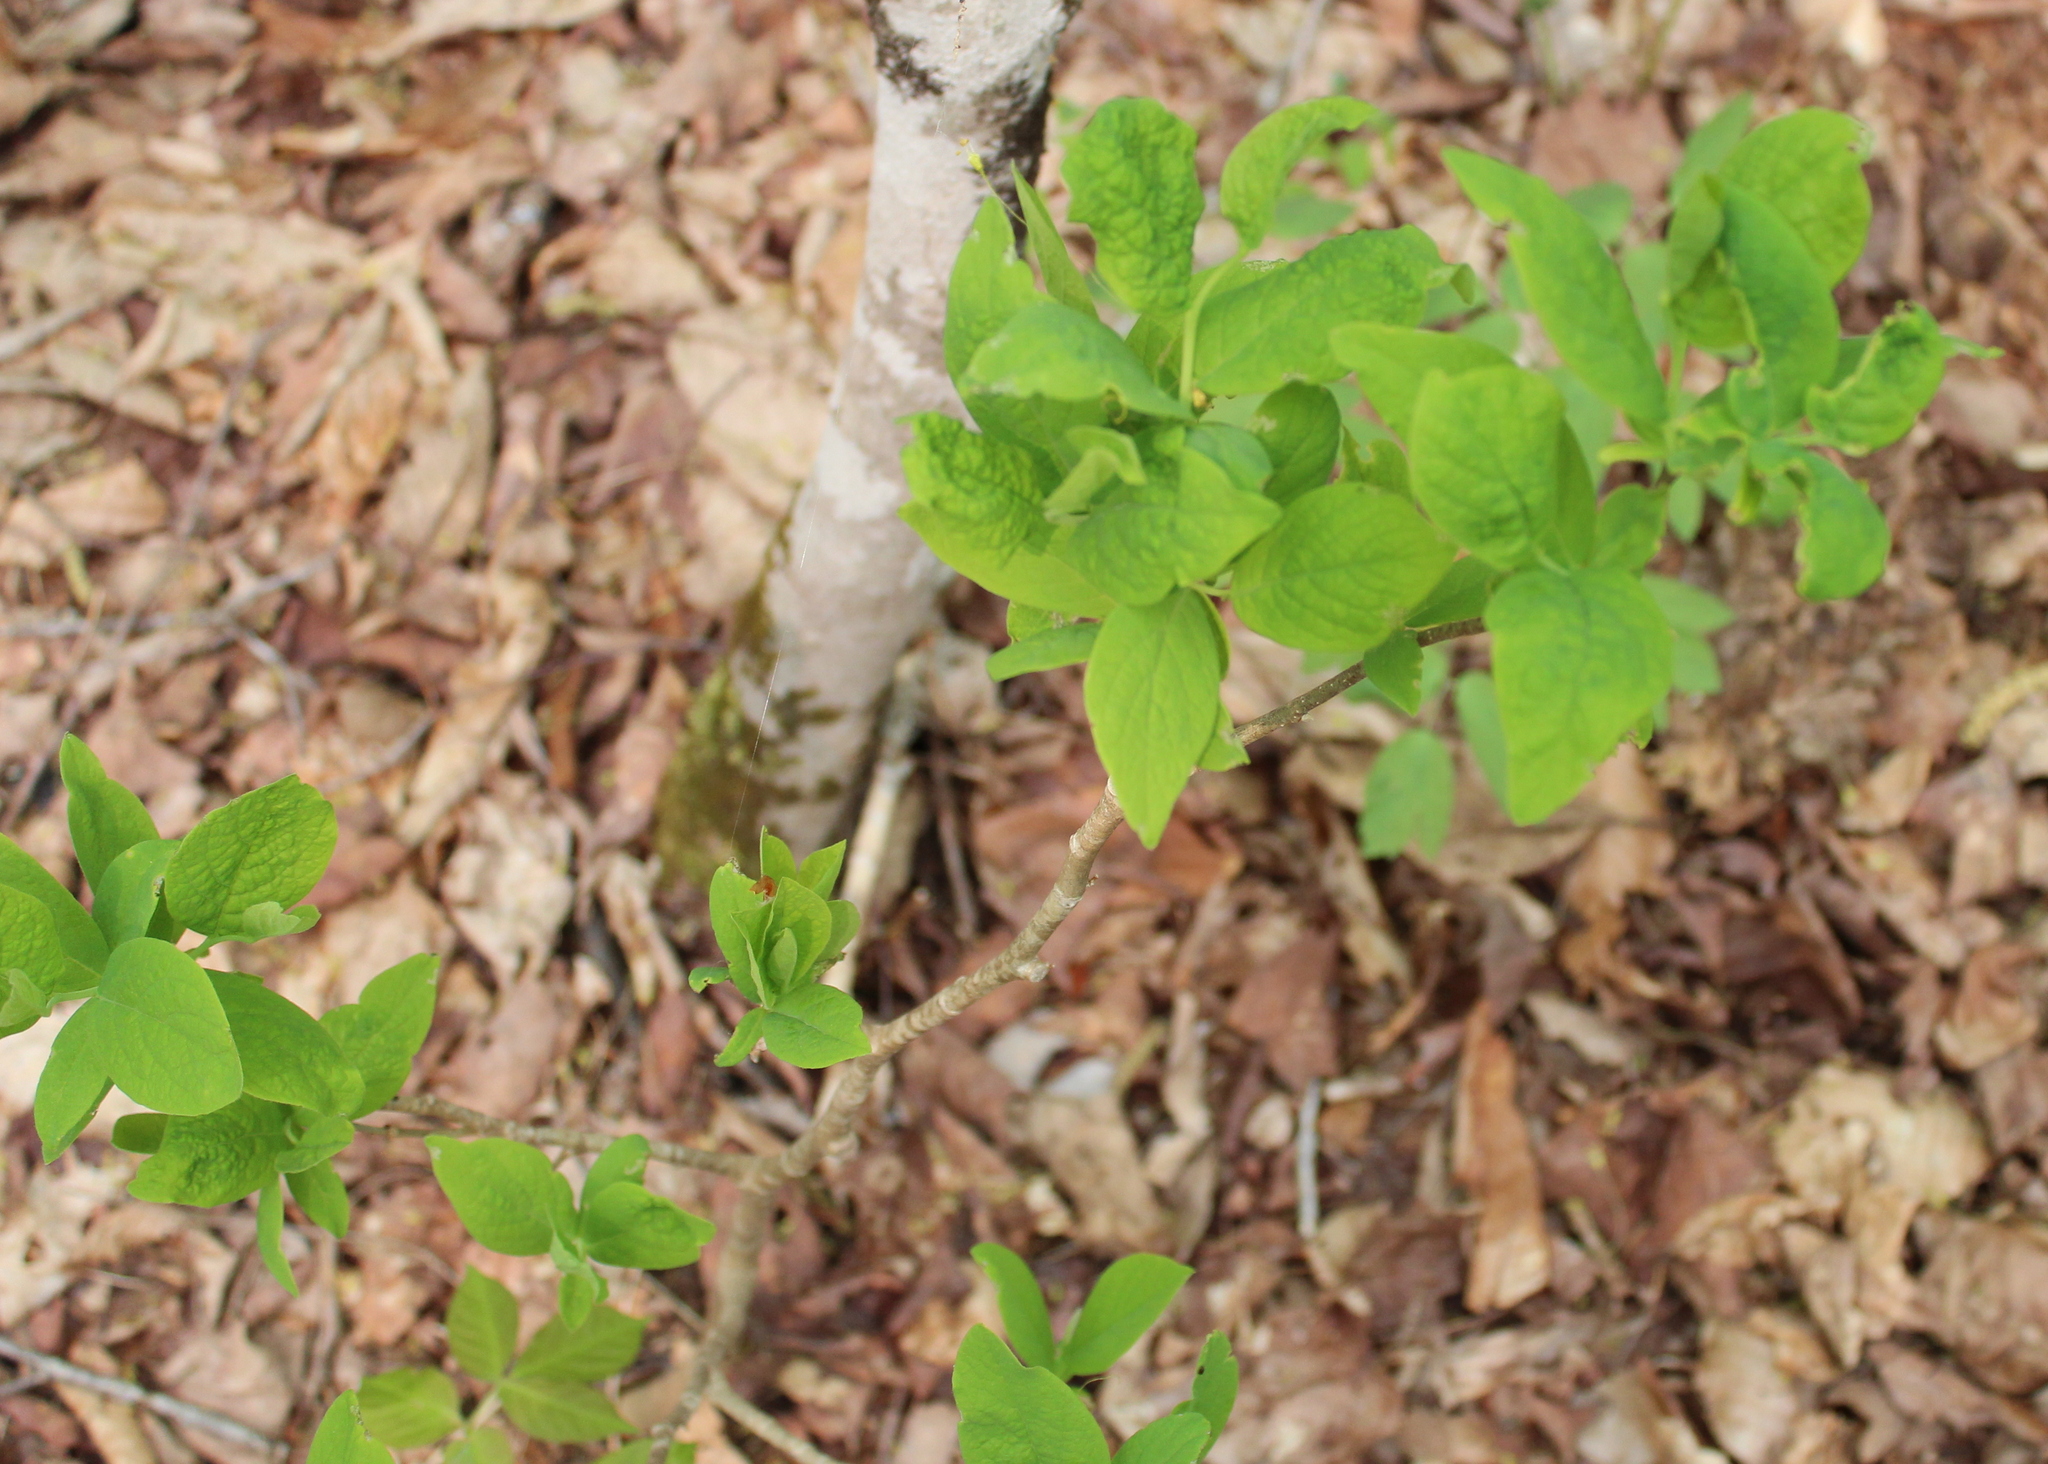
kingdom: Plantae
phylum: Tracheophyta
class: Magnoliopsida
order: Malvales
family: Thymelaeaceae
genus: Dirca
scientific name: Dirca palustris
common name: Leatherwood
